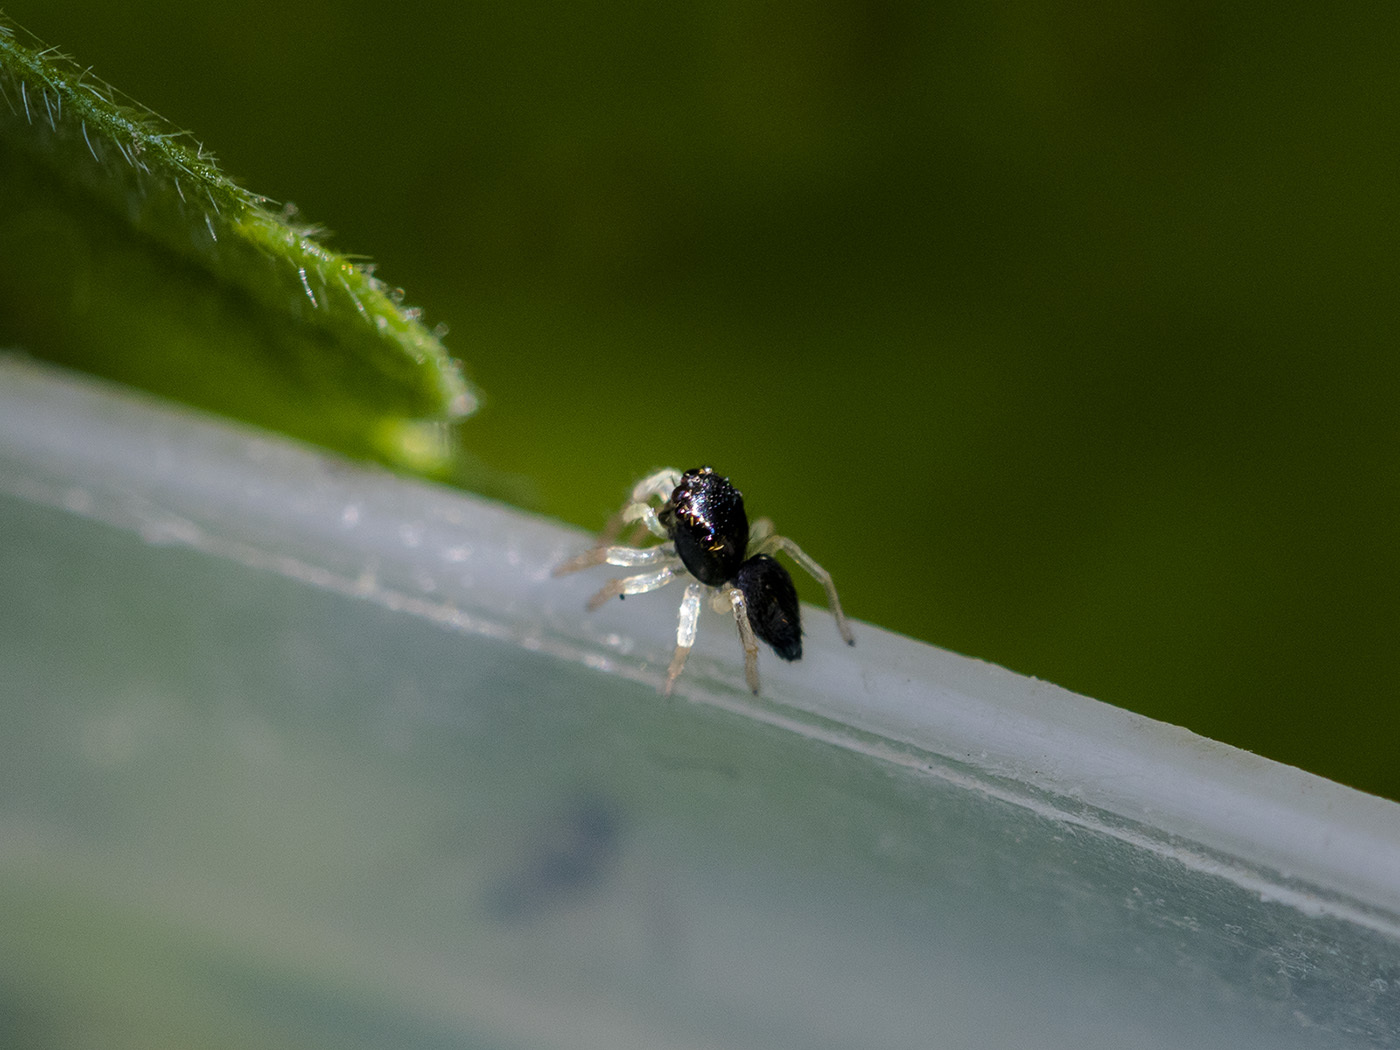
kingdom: Animalia
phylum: Arthropoda
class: Arachnida
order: Araneae
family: Salticidae
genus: Heliophanus
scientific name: Heliophanus auratus
